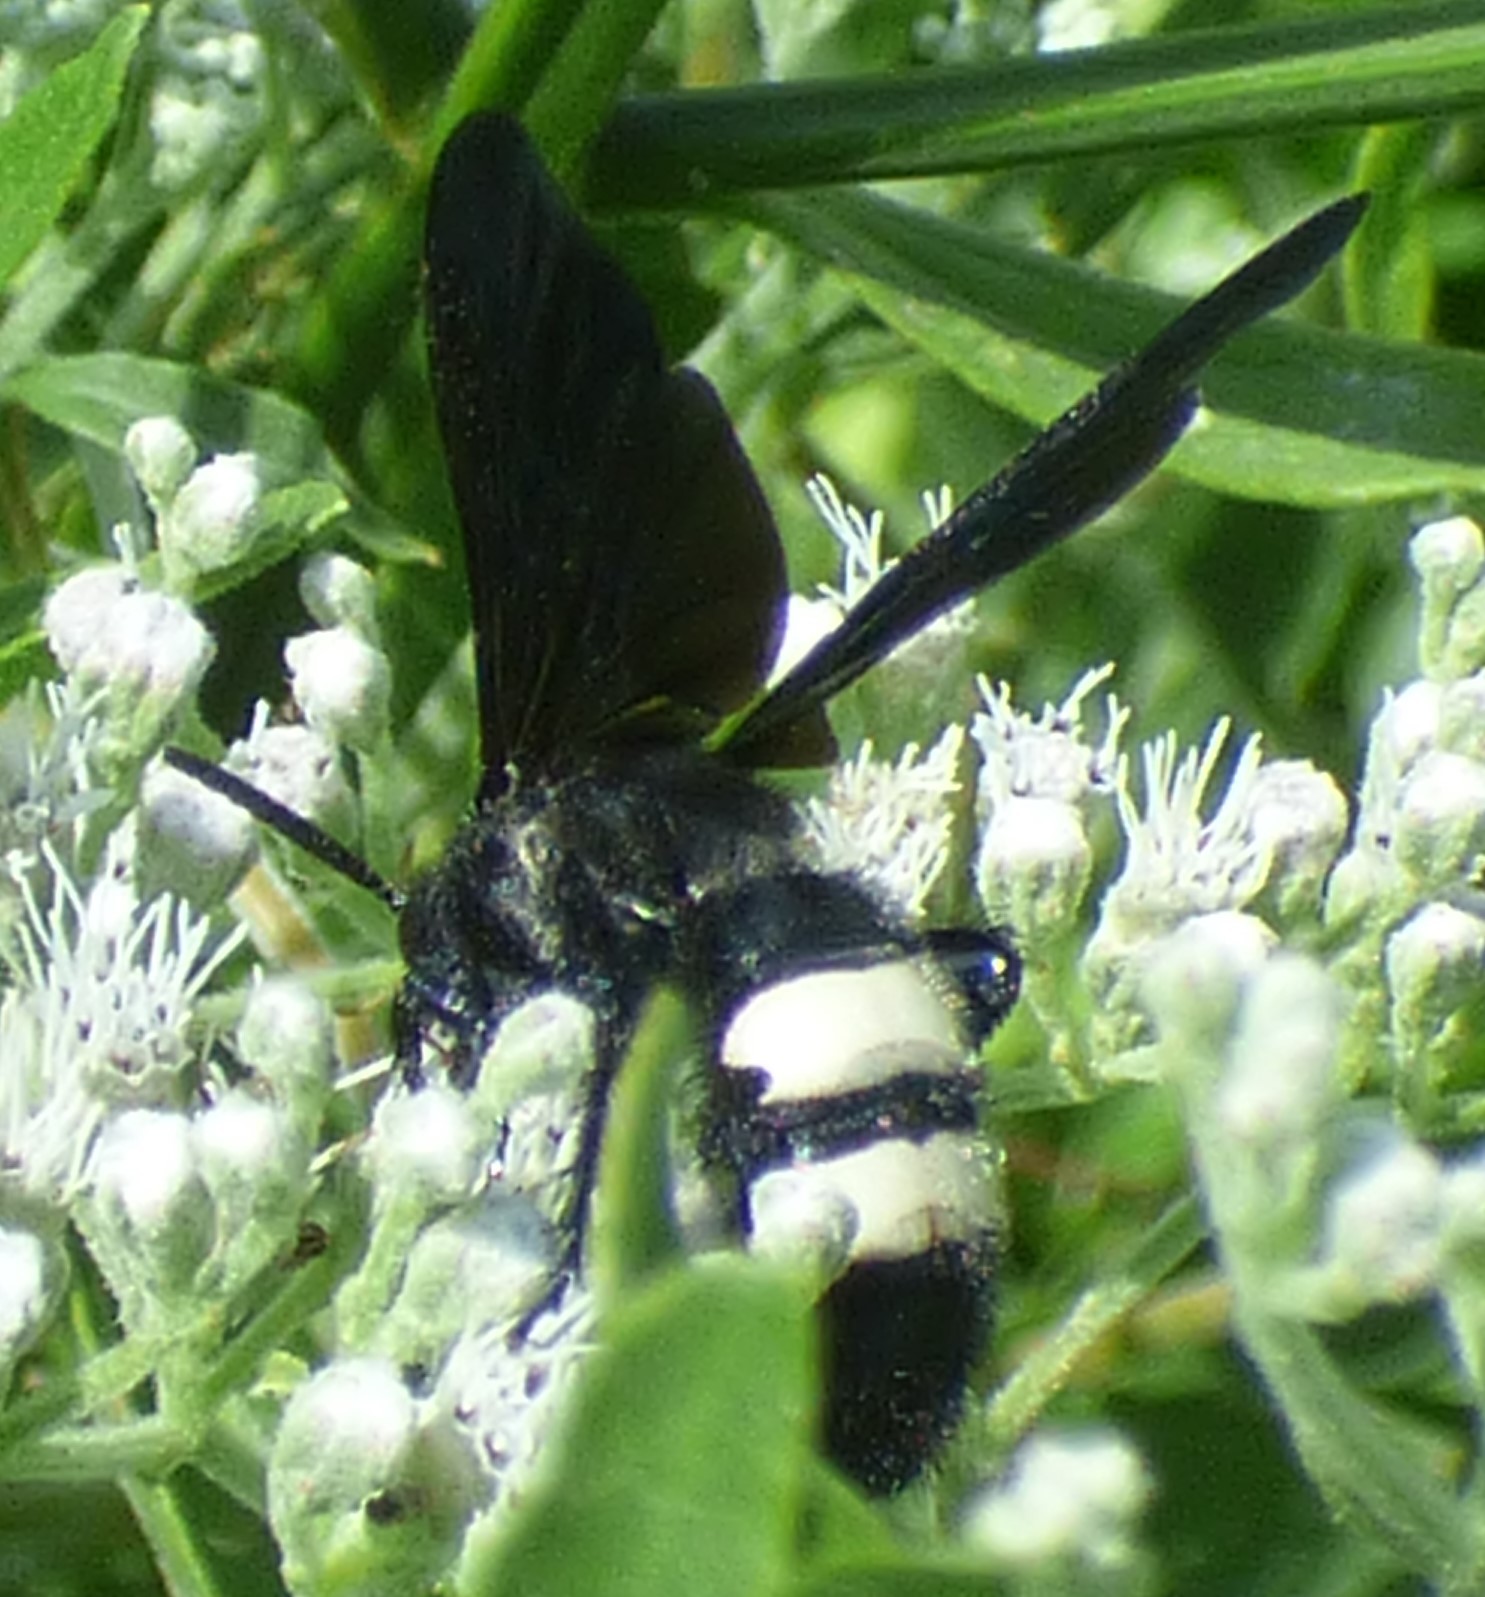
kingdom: Animalia
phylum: Arthropoda
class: Insecta
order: Hymenoptera
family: Scoliidae
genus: Scolia
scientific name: Scolia bicincta
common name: Double-banded scoliid wasp
